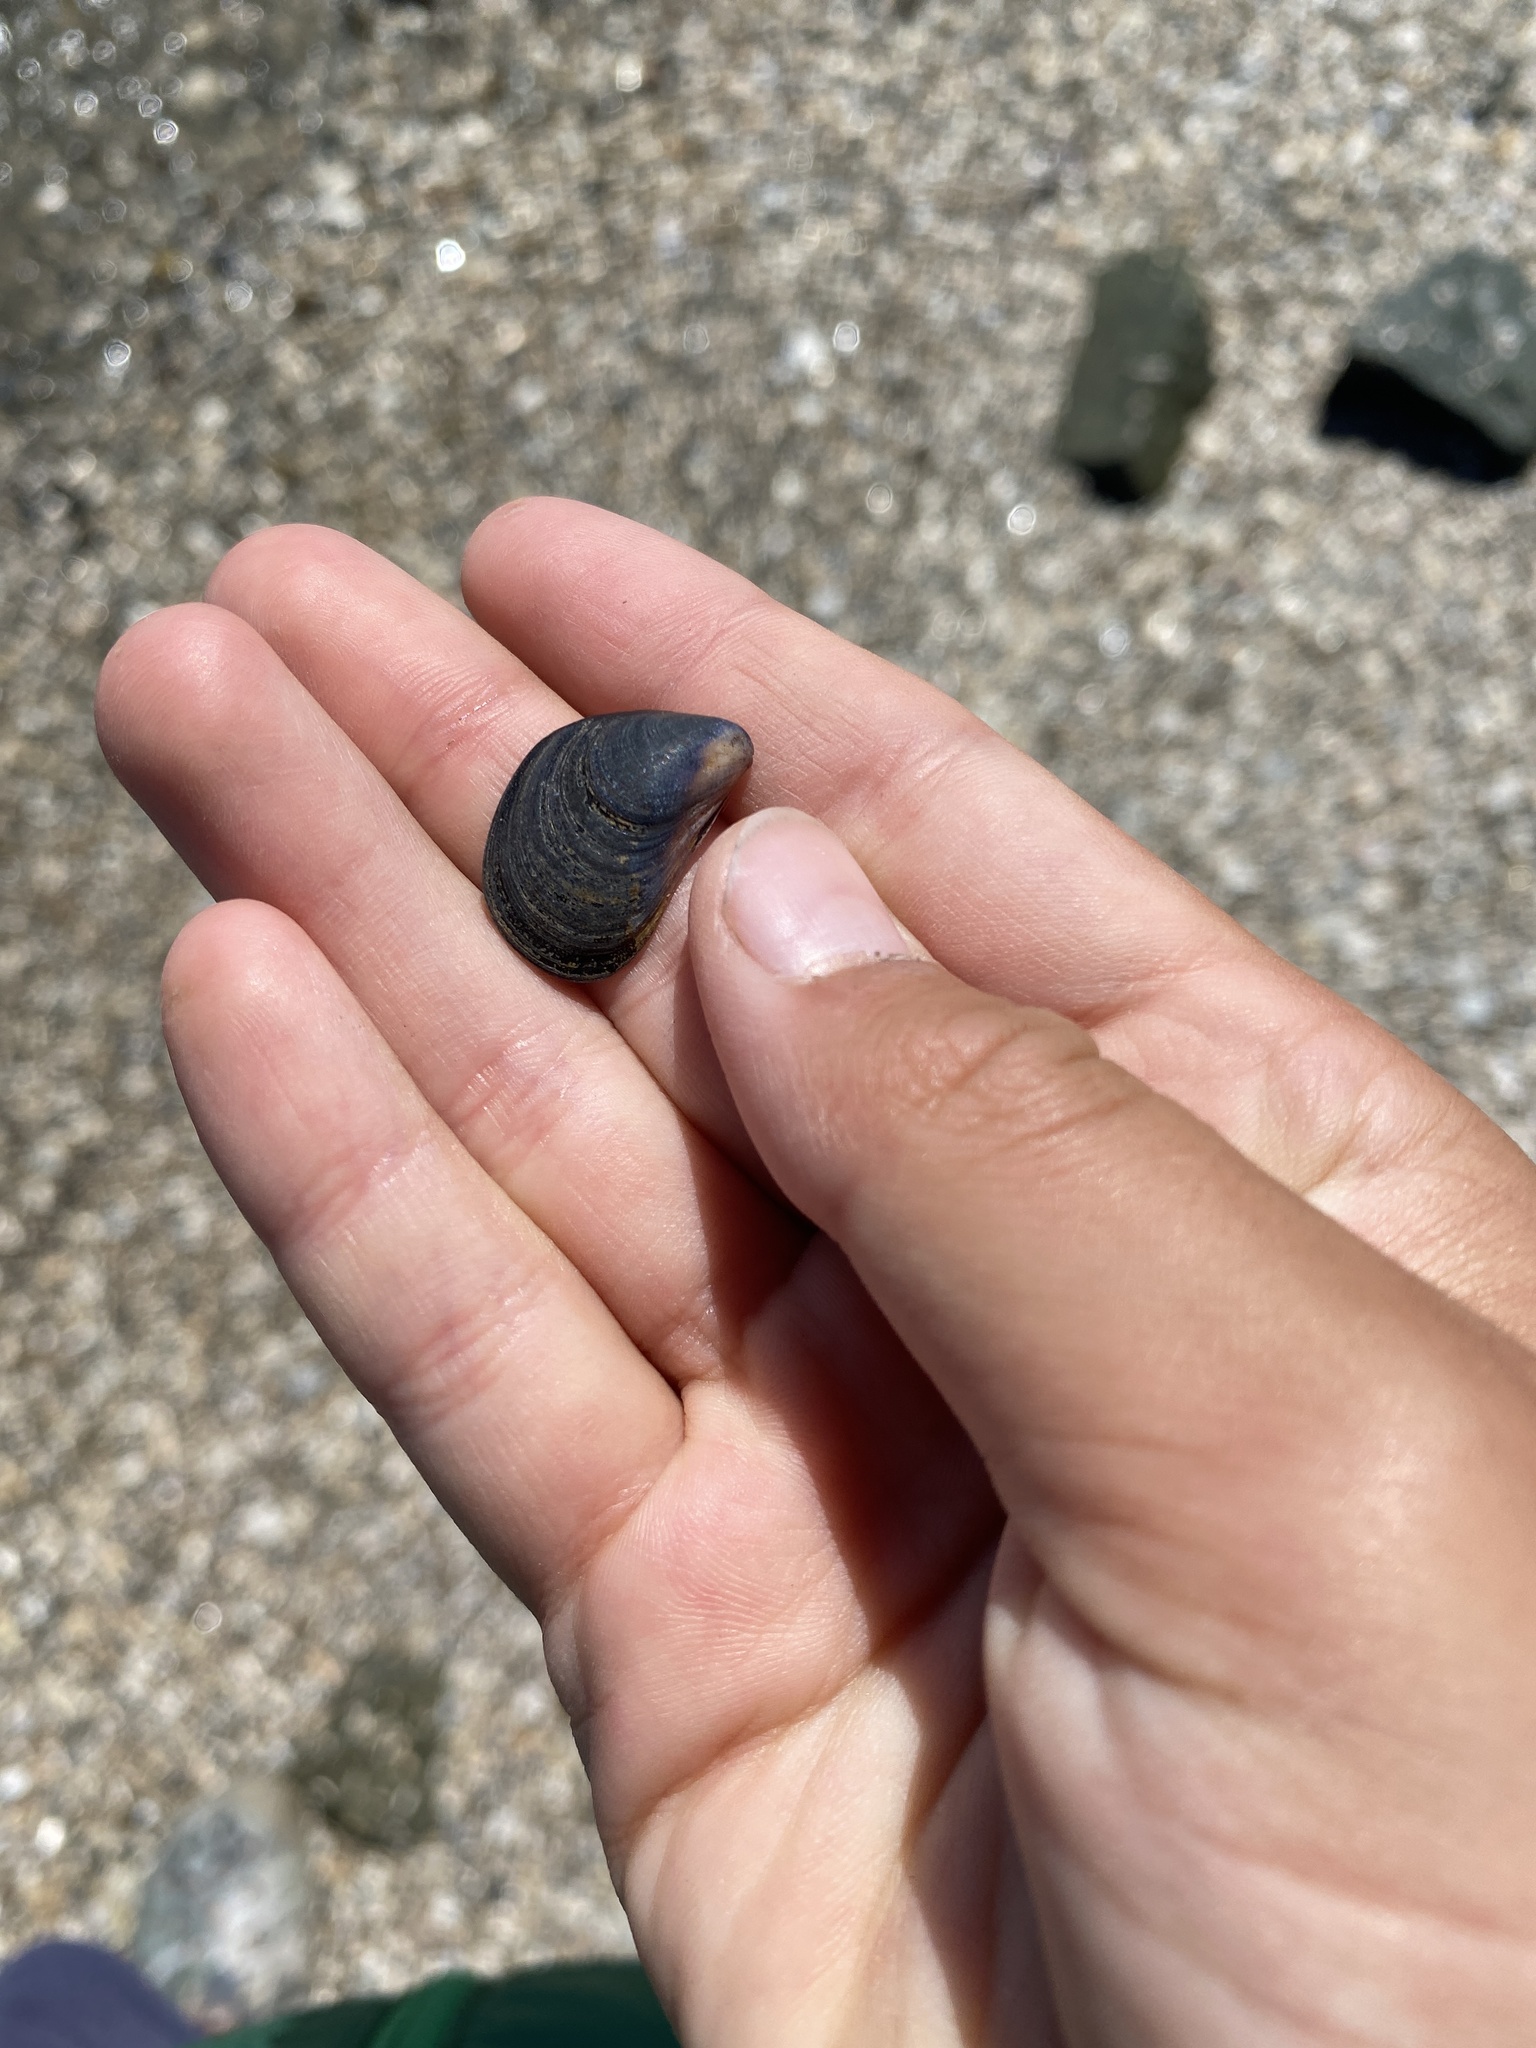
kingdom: Animalia
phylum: Mollusca
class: Bivalvia
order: Mytilida
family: Mytilidae
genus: Mytilus
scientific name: Mytilus
